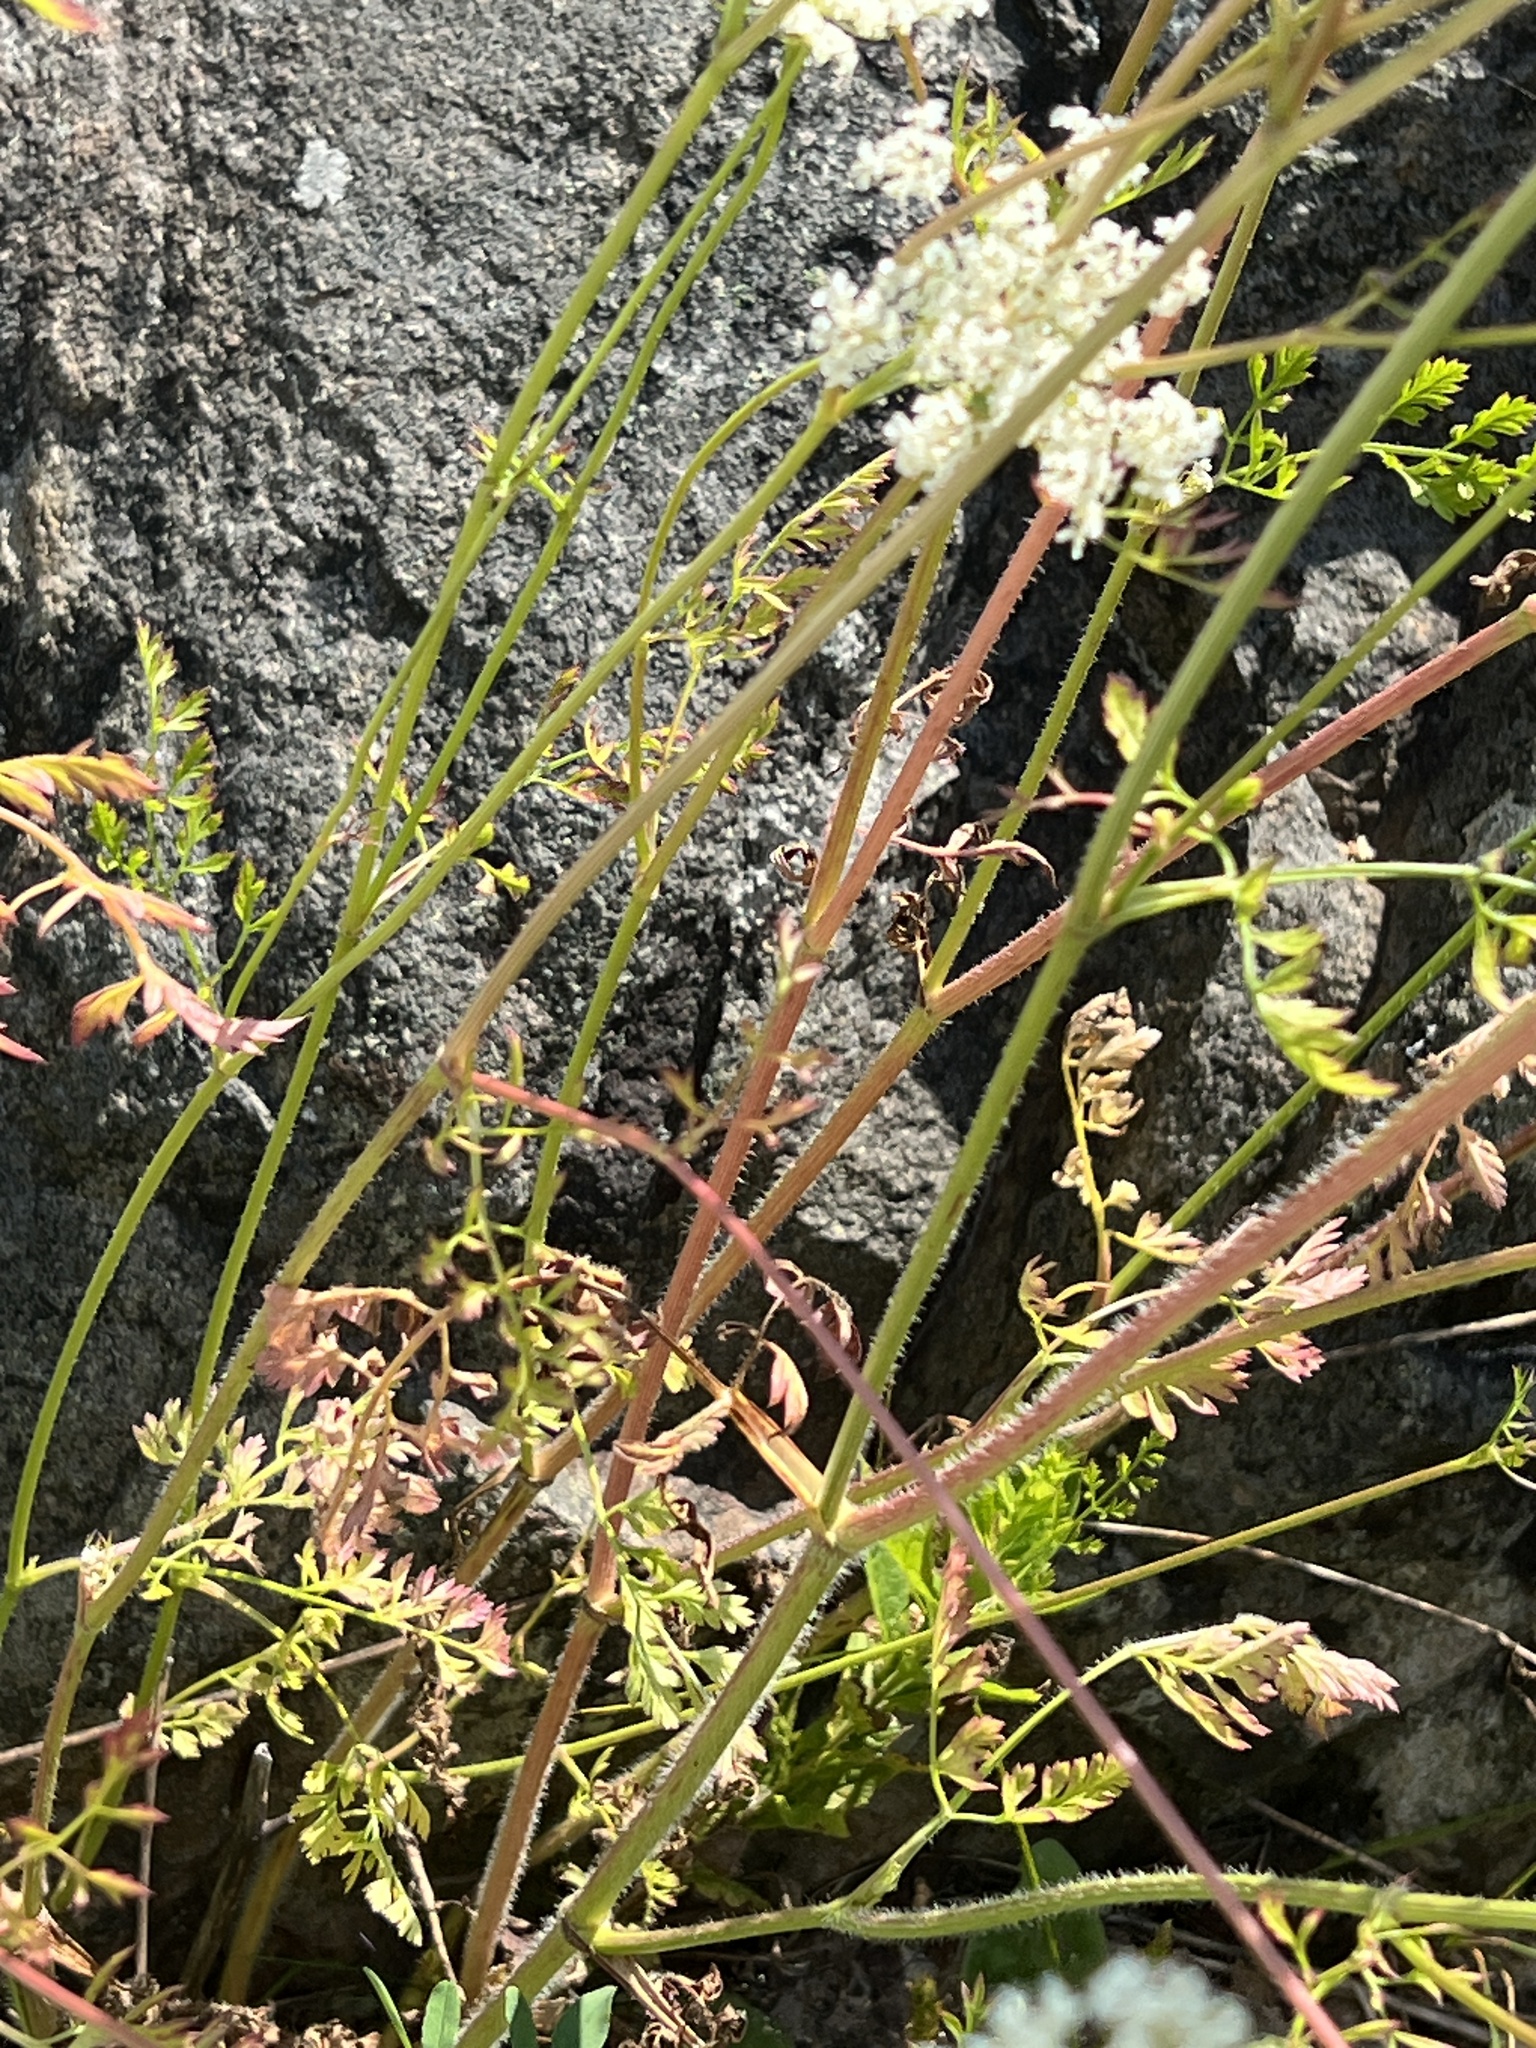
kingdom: Plantae
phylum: Tracheophyta
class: Magnoliopsida
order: Apiales
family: Apiaceae
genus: Daucus
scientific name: Daucus carota
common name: Wild carrot
